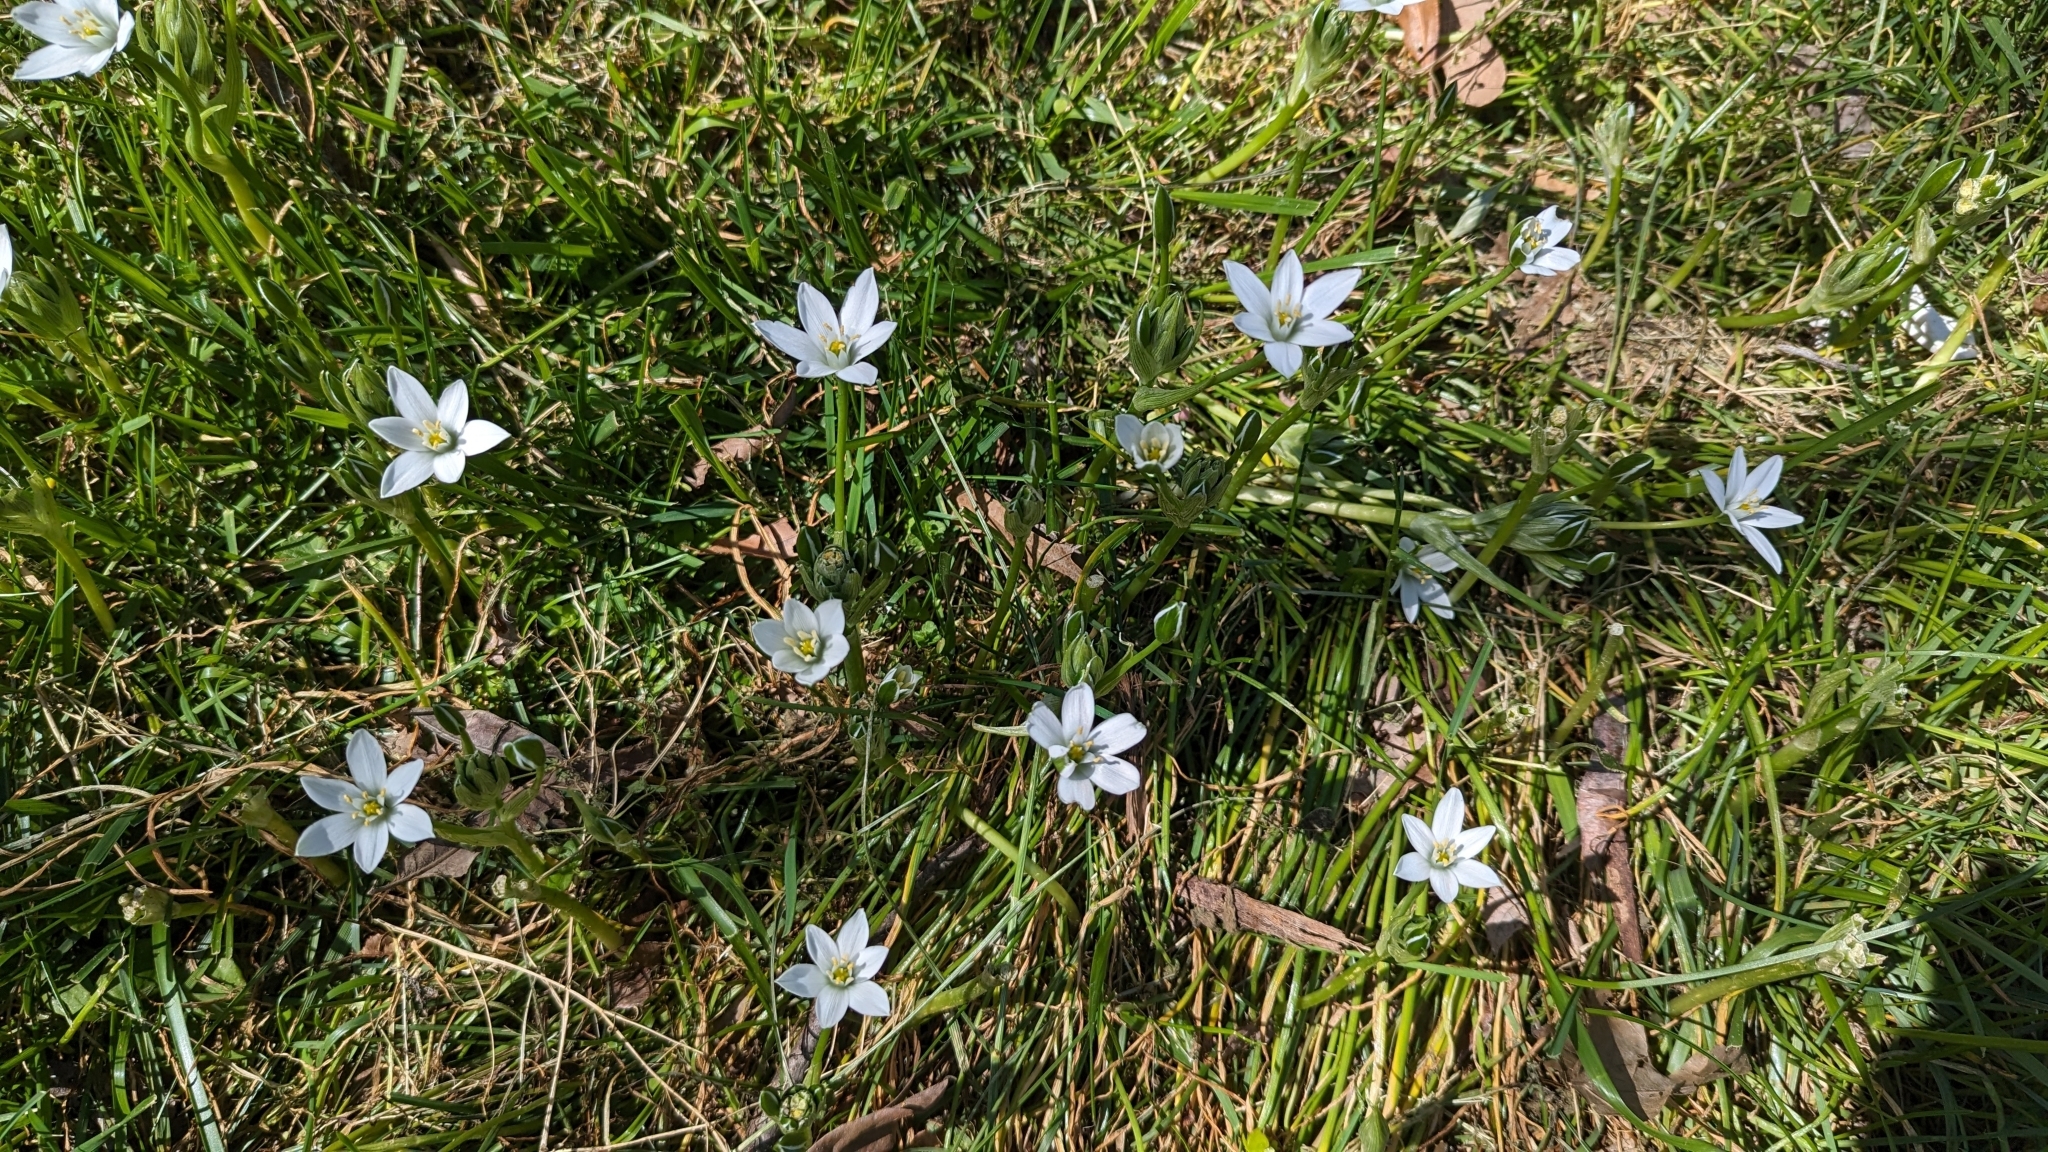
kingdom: Plantae
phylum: Tracheophyta
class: Liliopsida
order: Asparagales
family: Asparagaceae
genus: Ornithogalum
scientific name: Ornithogalum umbellatum
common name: Garden star-of-bethlehem
